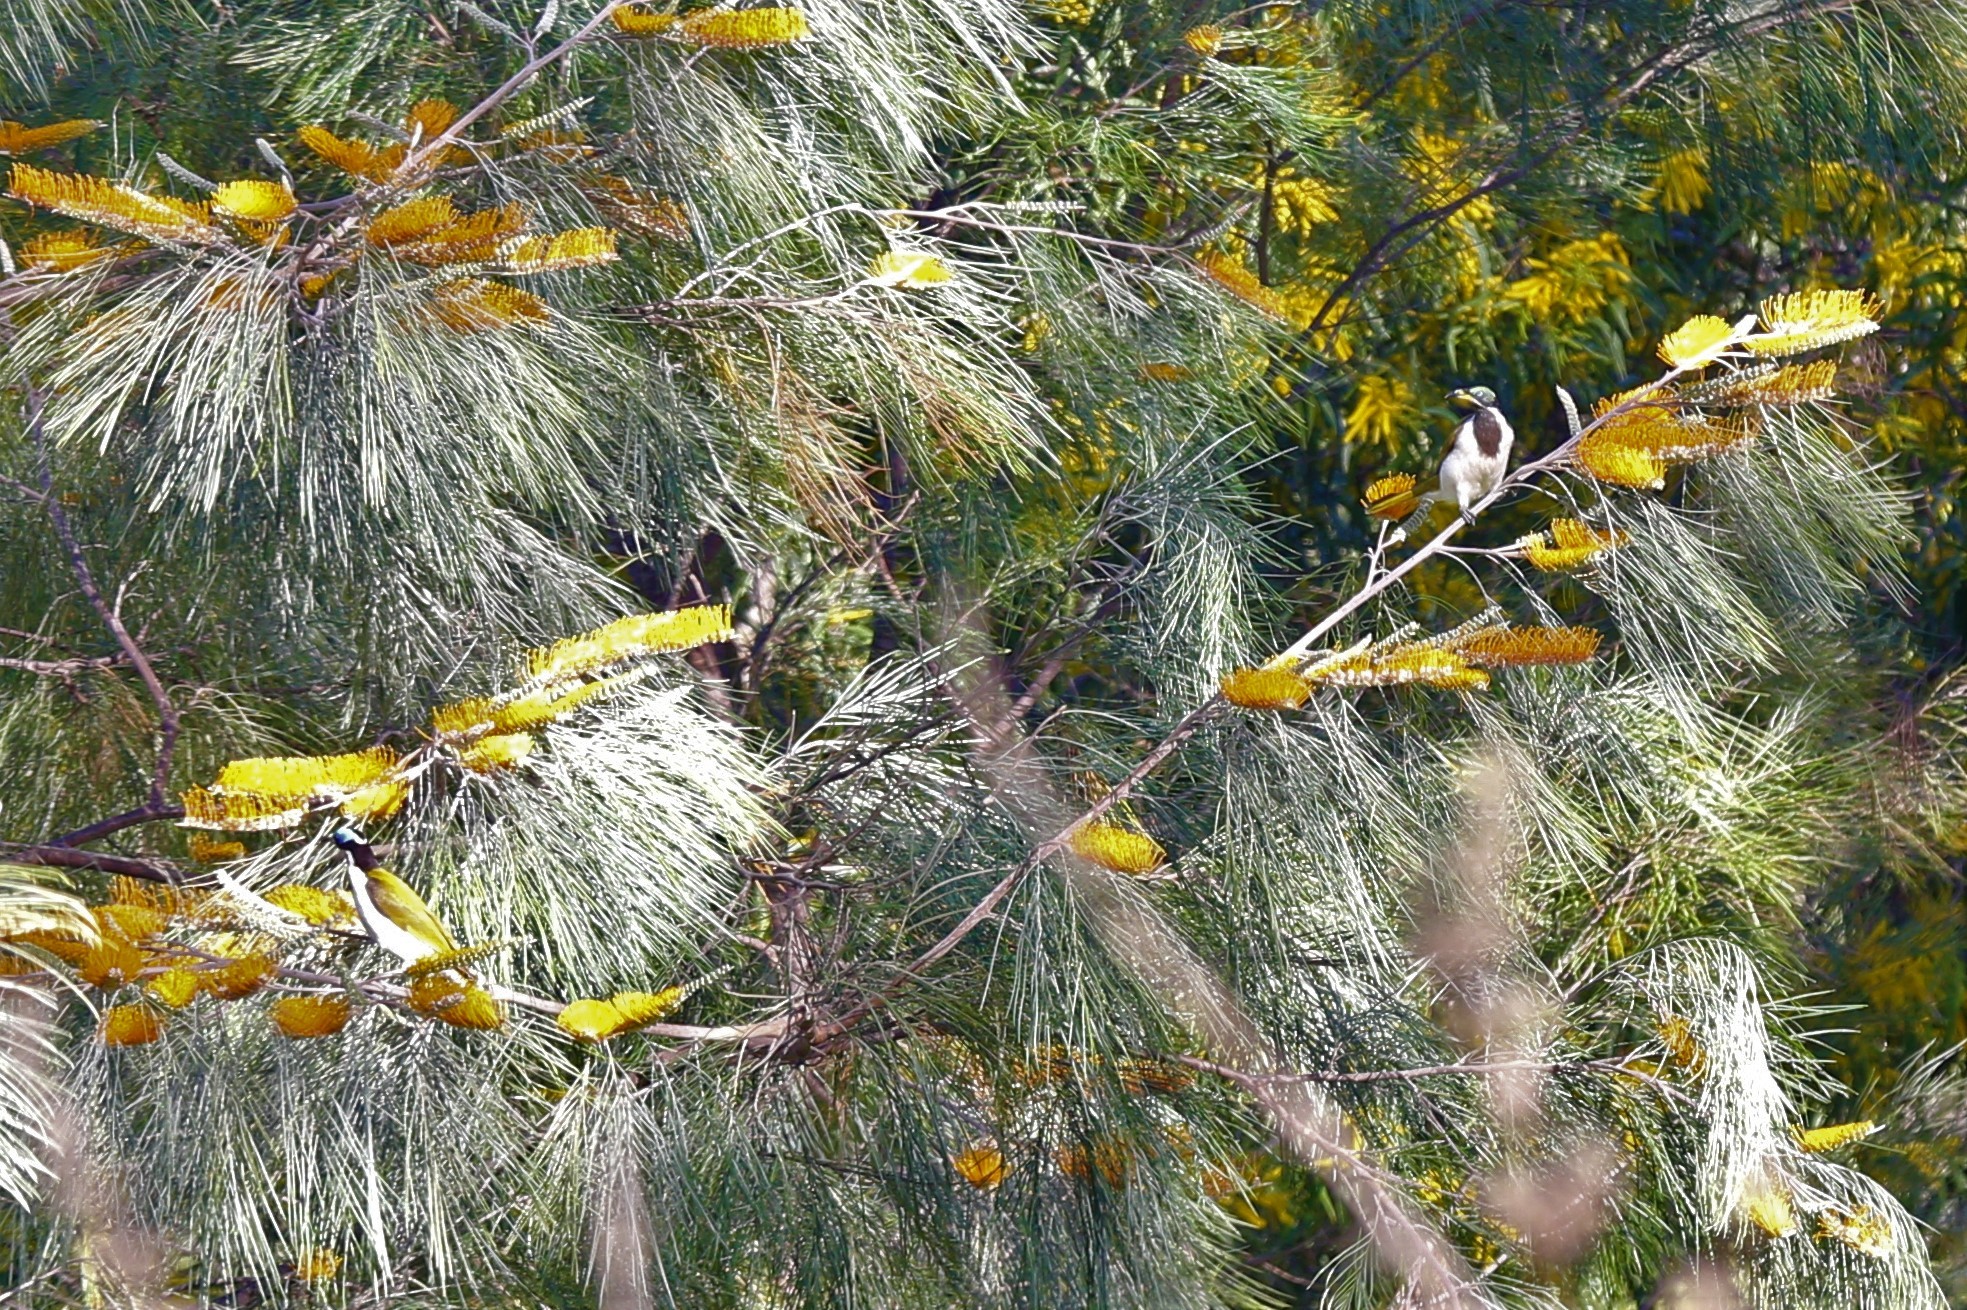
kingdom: Animalia
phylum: Chordata
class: Aves
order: Passeriformes
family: Meliphagidae
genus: Entomyzon
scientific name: Entomyzon cyanotis
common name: Blue-faced honeyeater
